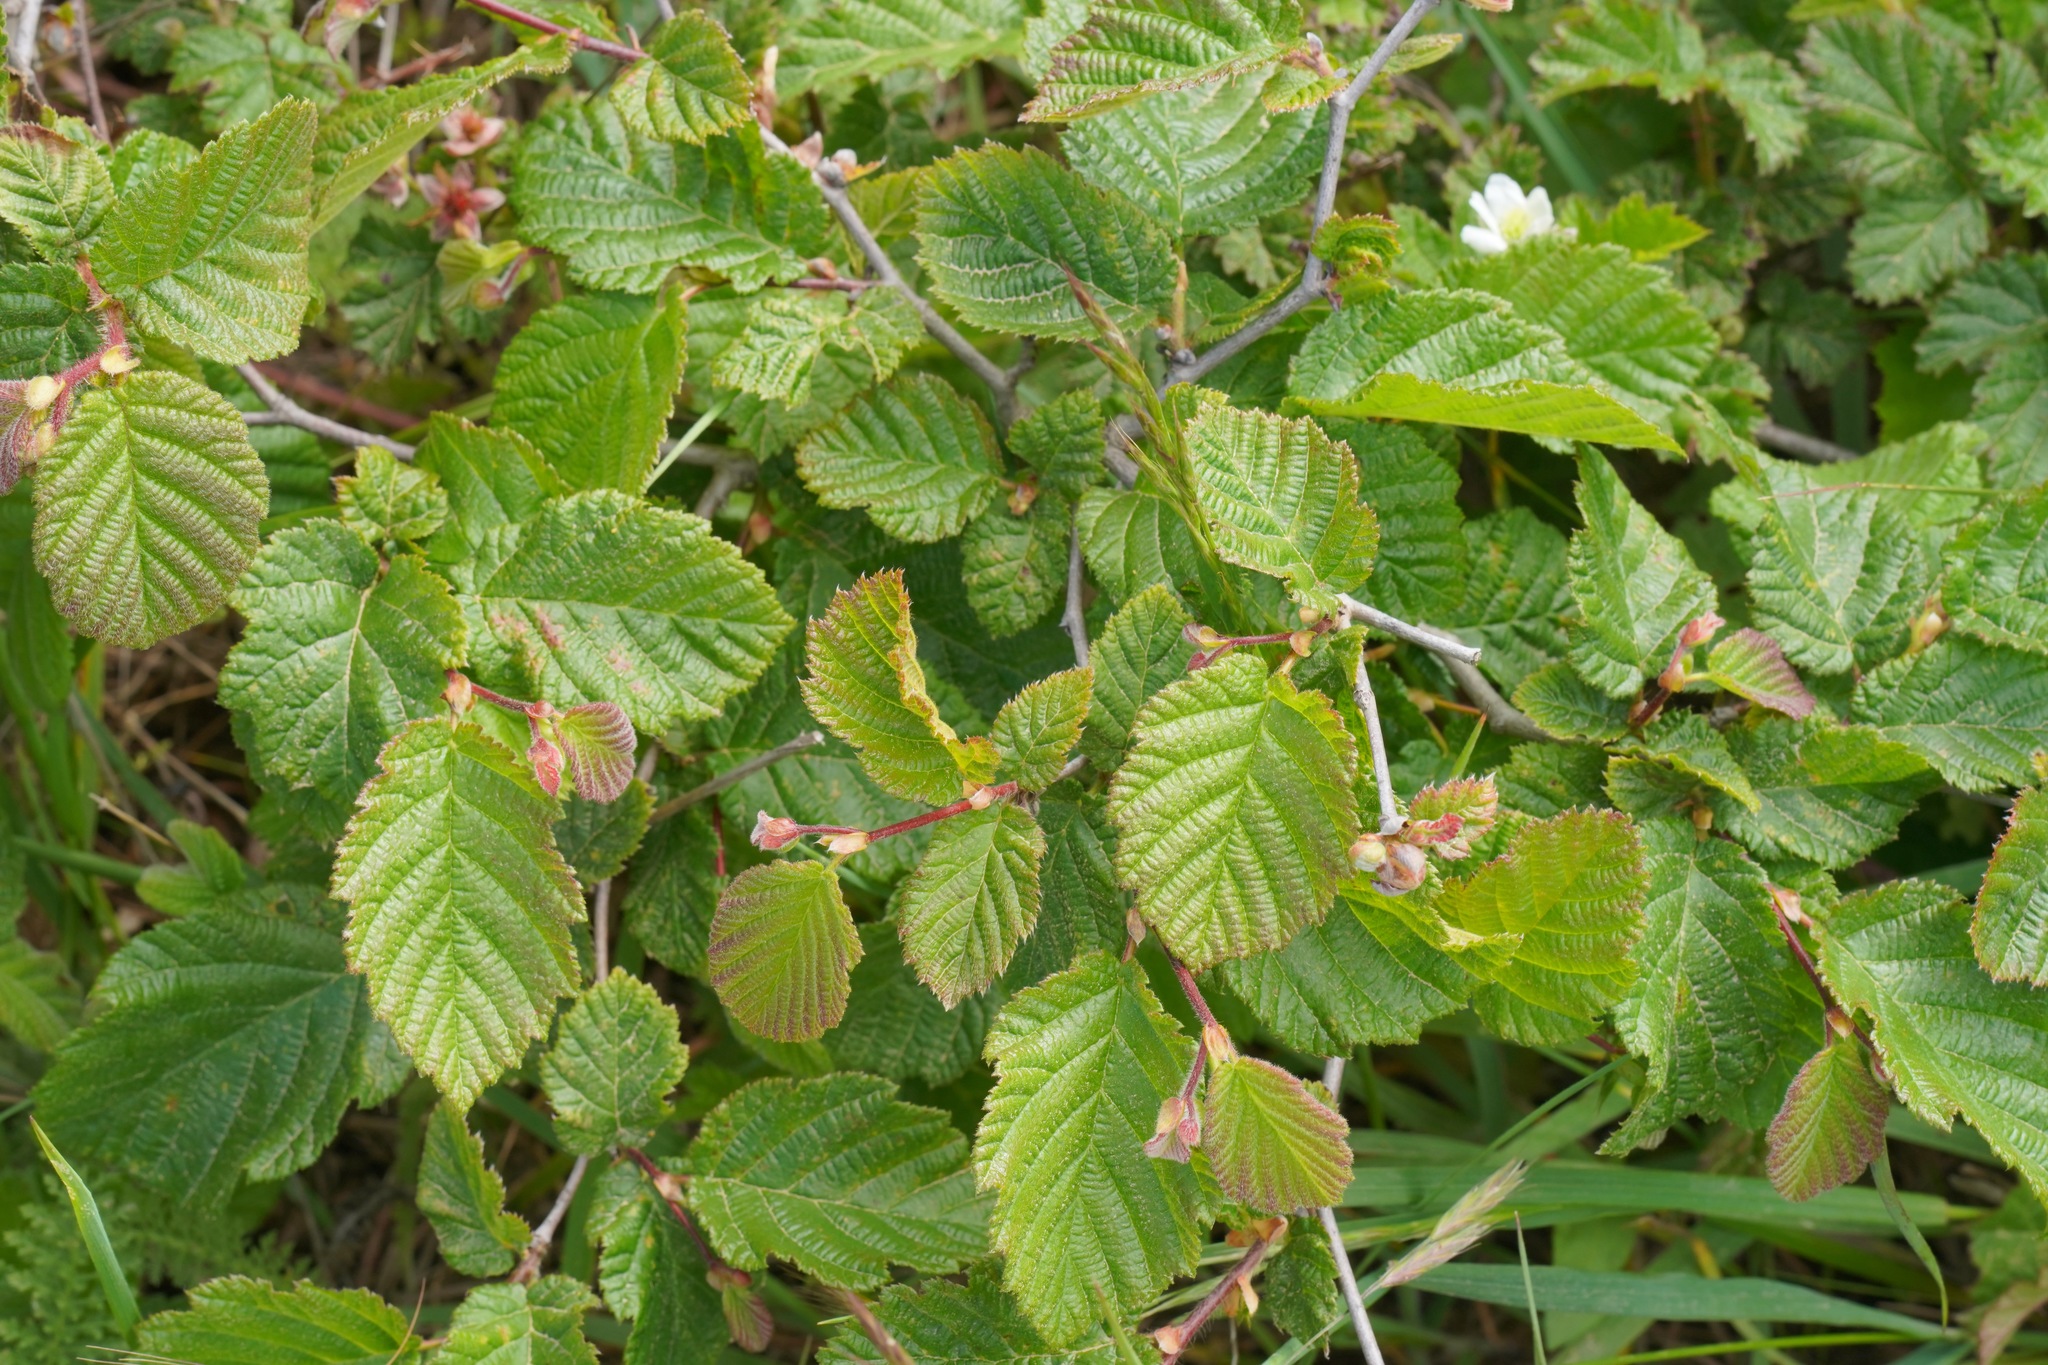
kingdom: Plantae
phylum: Tracheophyta
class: Magnoliopsida
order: Fagales
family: Betulaceae
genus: Corylus
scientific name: Corylus cornuta
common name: Beaked hazel
